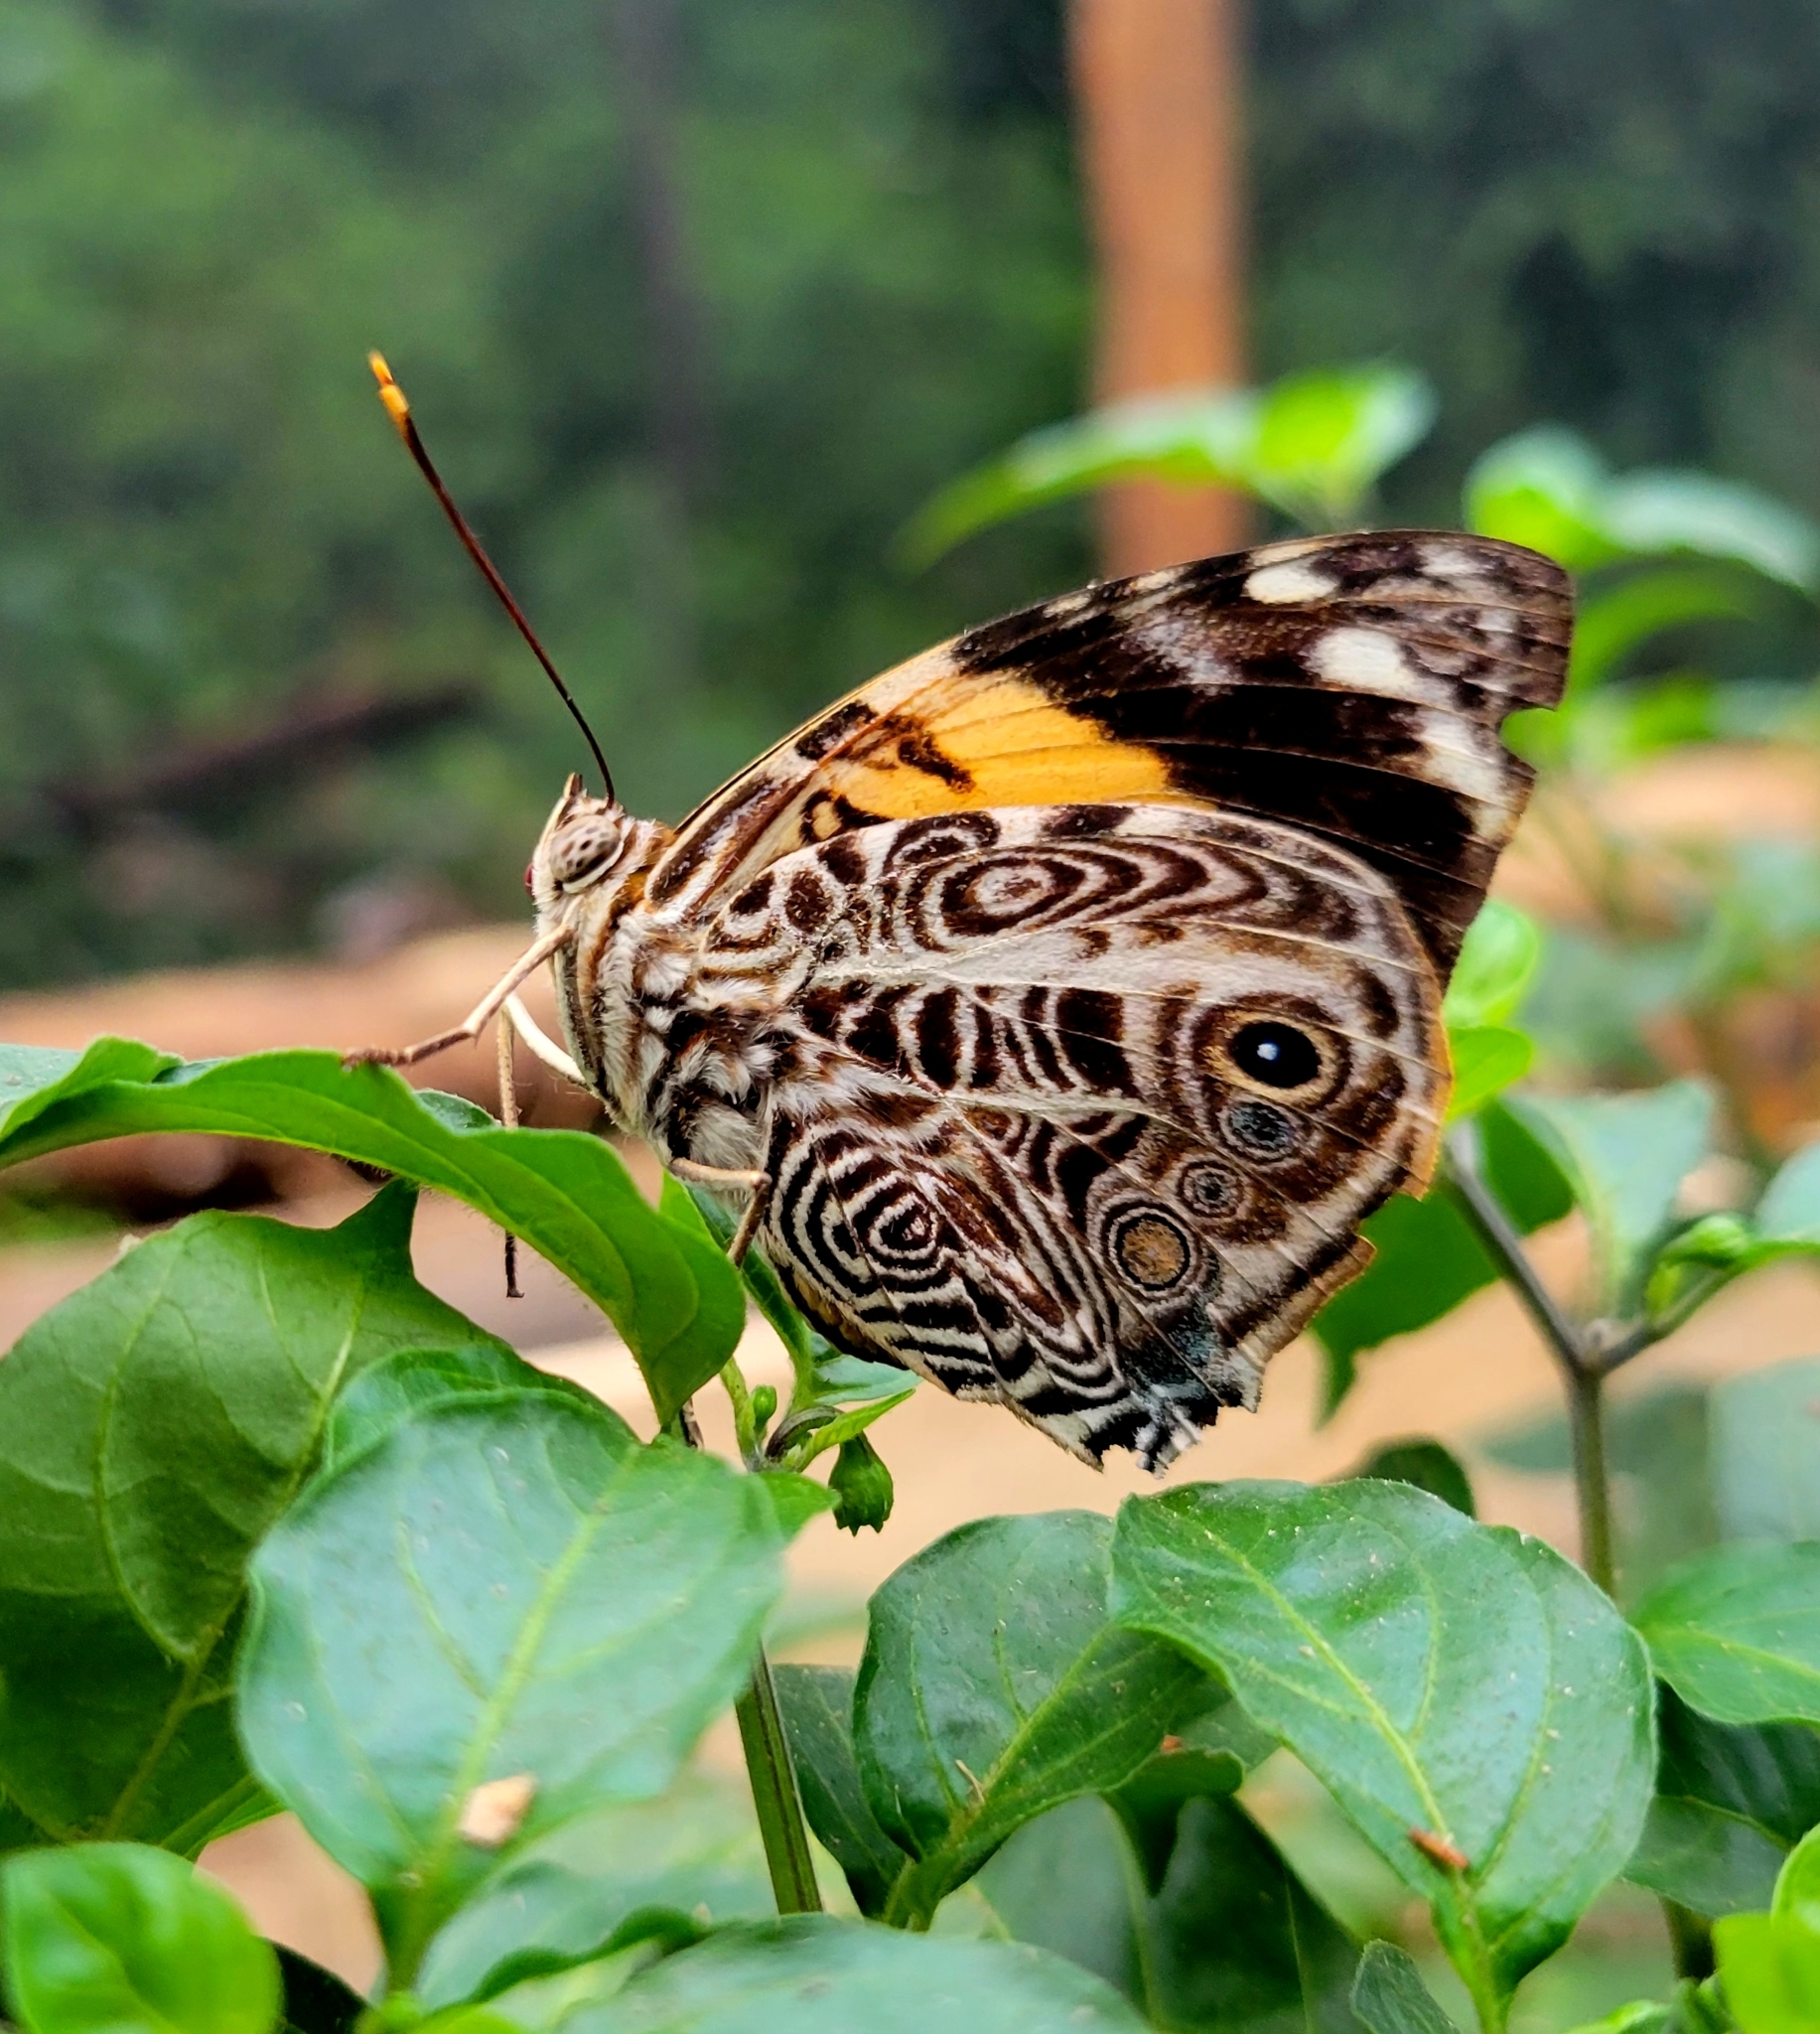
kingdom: Animalia
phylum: Arthropoda
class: Insecta
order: Lepidoptera
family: Nymphalidae
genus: Smyrna
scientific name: Smyrna blomfildia
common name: Blomfild's beauty
